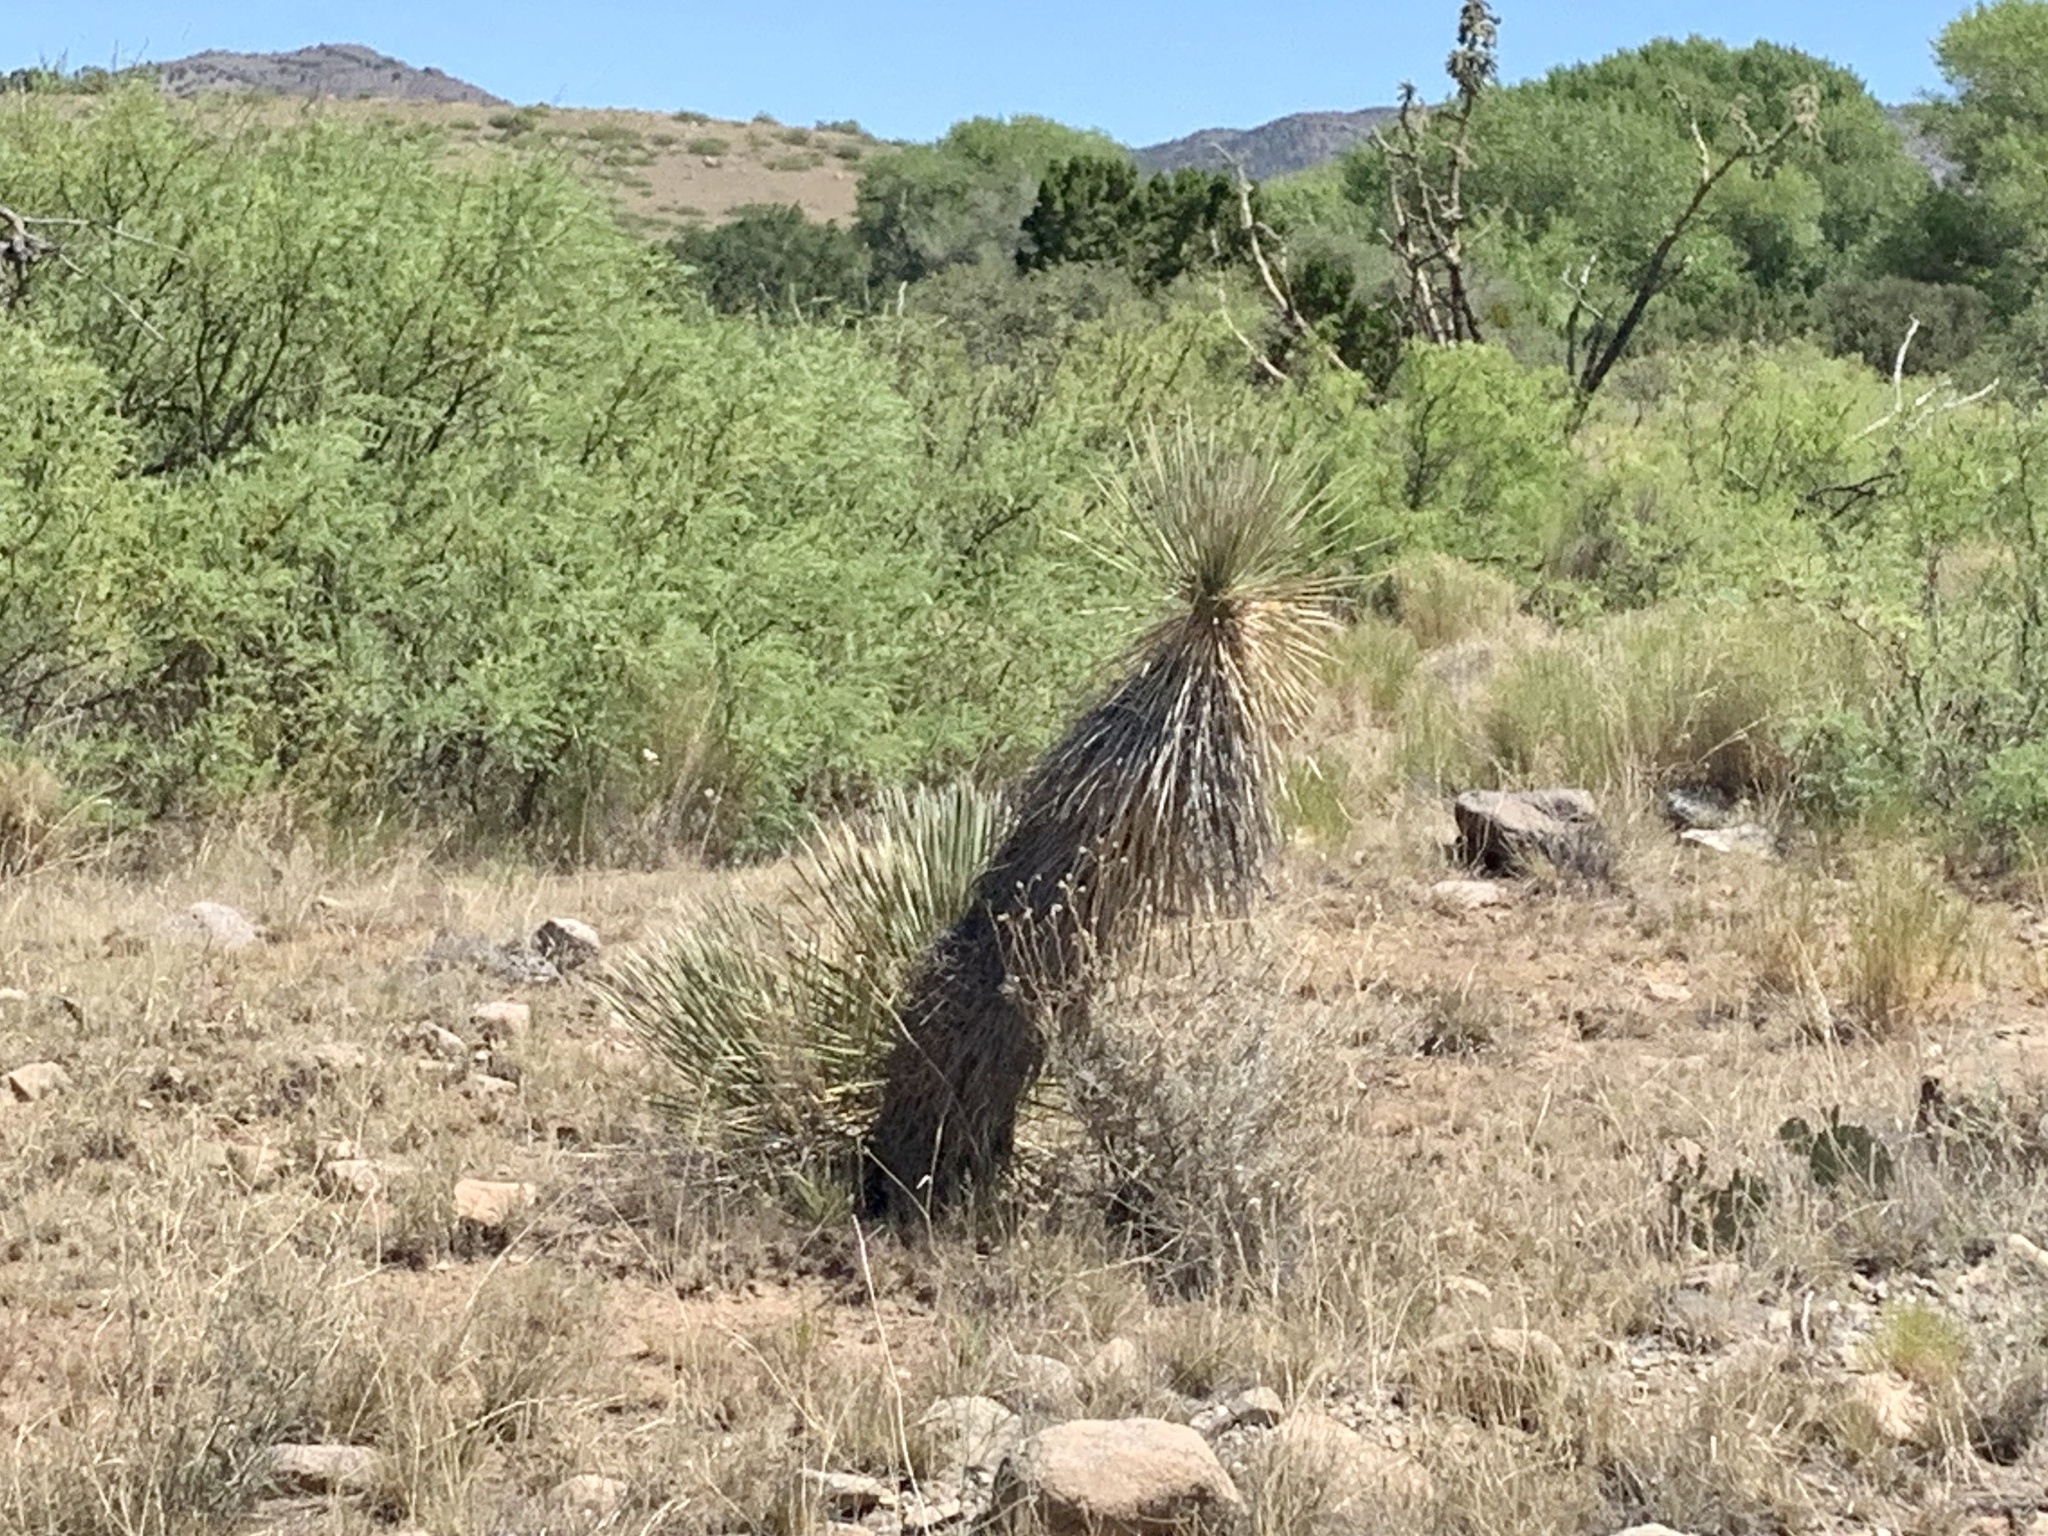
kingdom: Plantae
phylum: Tracheophyta
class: Liliopsida
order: Asparagales
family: Asparagaceae
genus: Yucca
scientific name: Yucca elata
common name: Palmella
